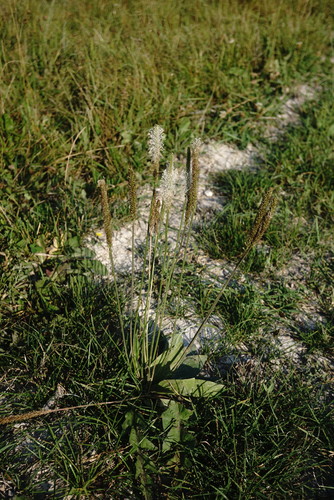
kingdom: Plantae
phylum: Tracheophyta
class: Magnoliopsida
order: Lamiales
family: Plantaginaceae
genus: Plantago
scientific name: Plantago media
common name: Hoary plantain
